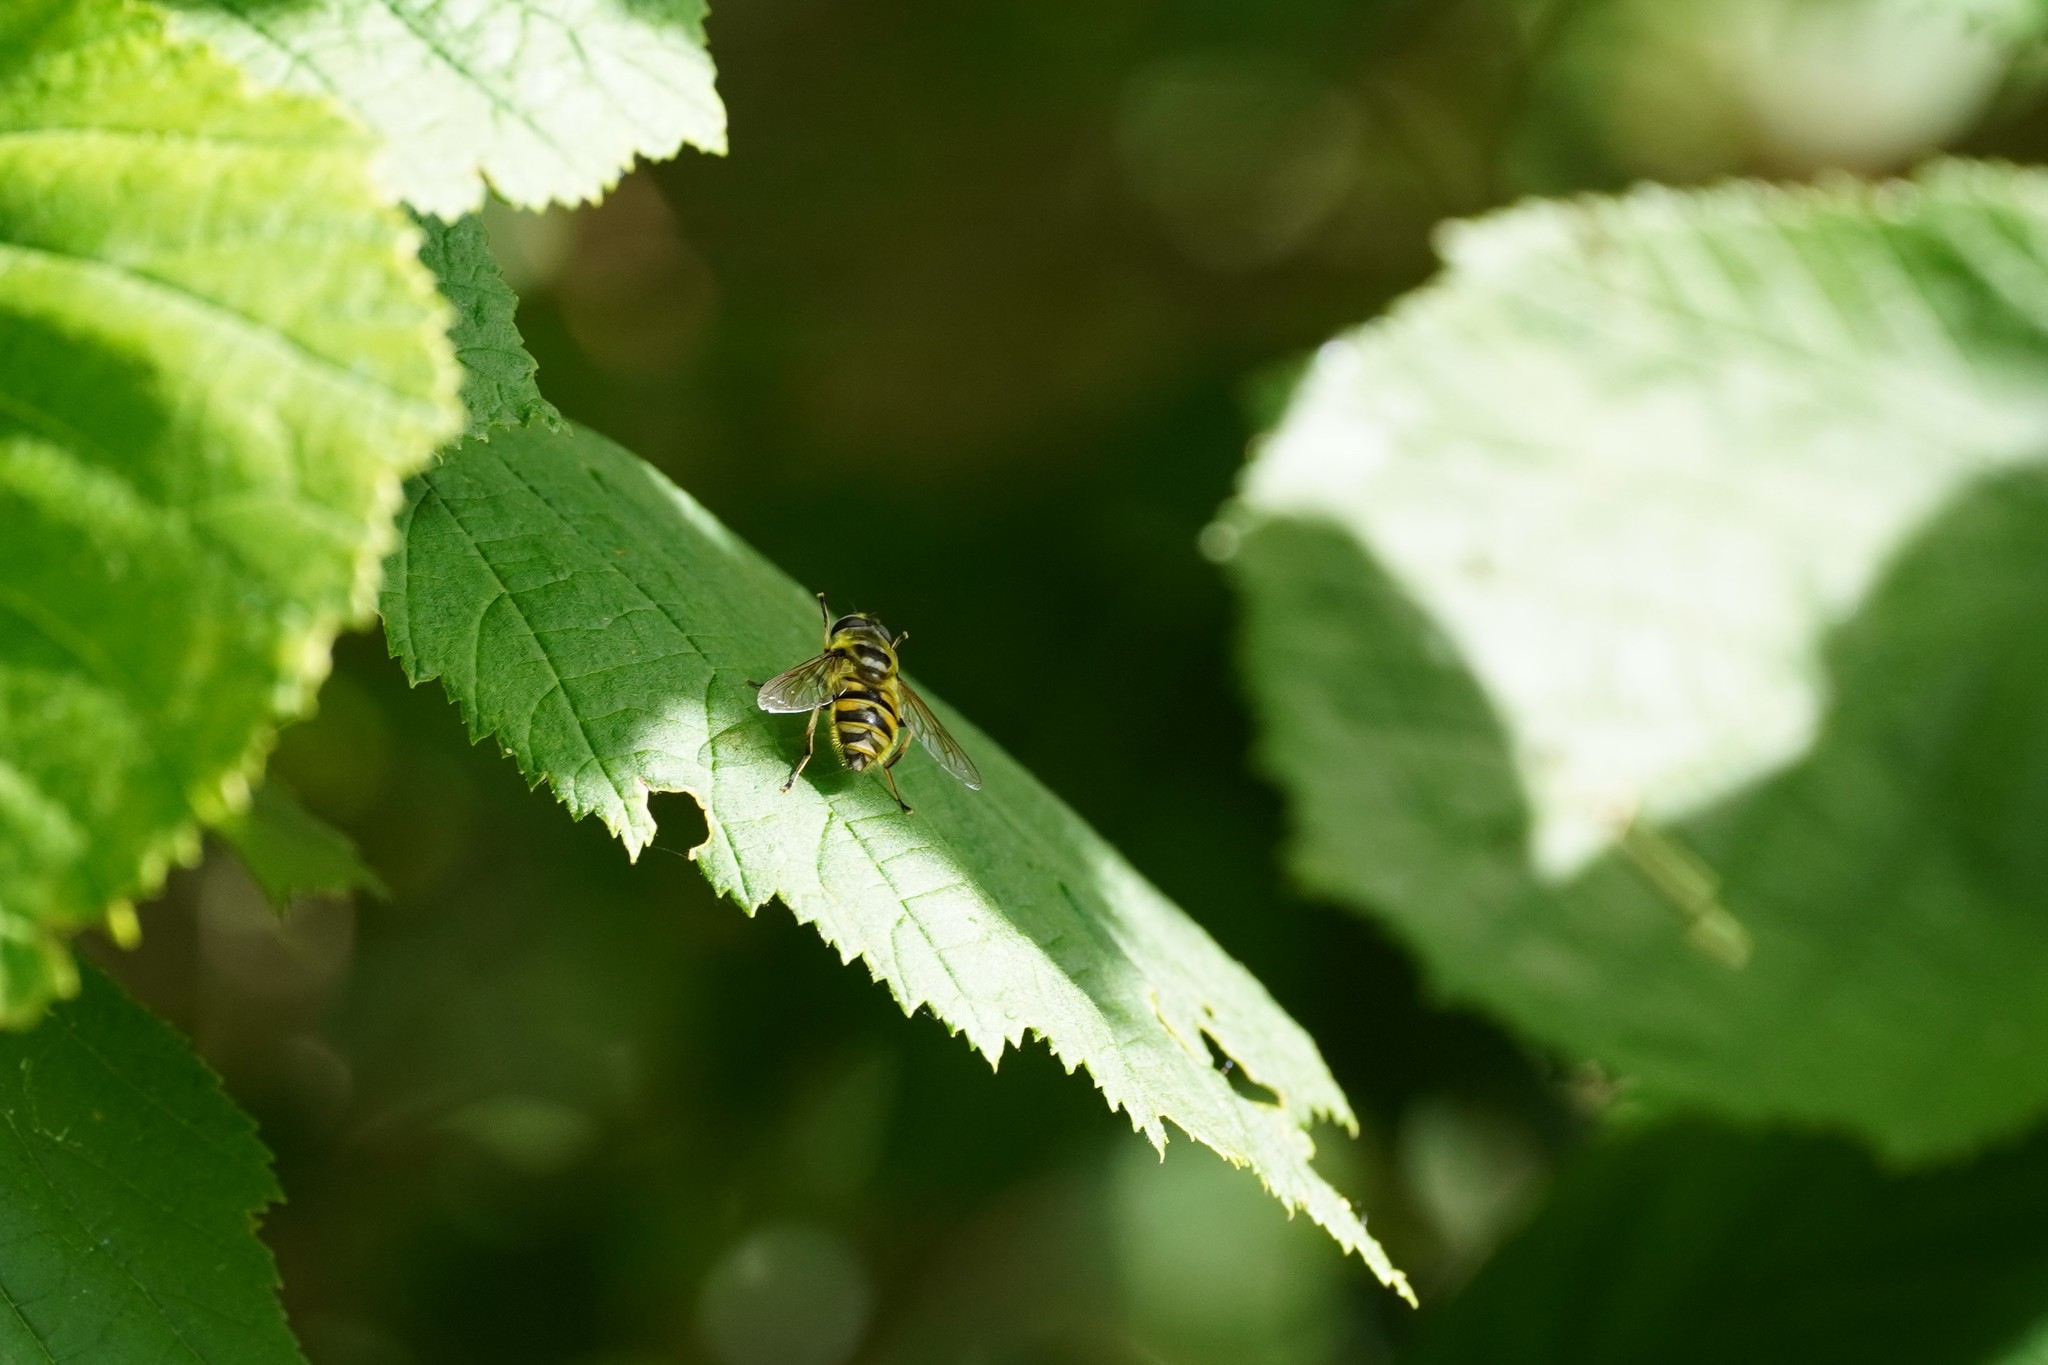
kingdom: Animalia
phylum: Arthropoda
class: Insecta
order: Diptera
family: Syrphidae
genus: Myathropa
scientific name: Myathropa florea
